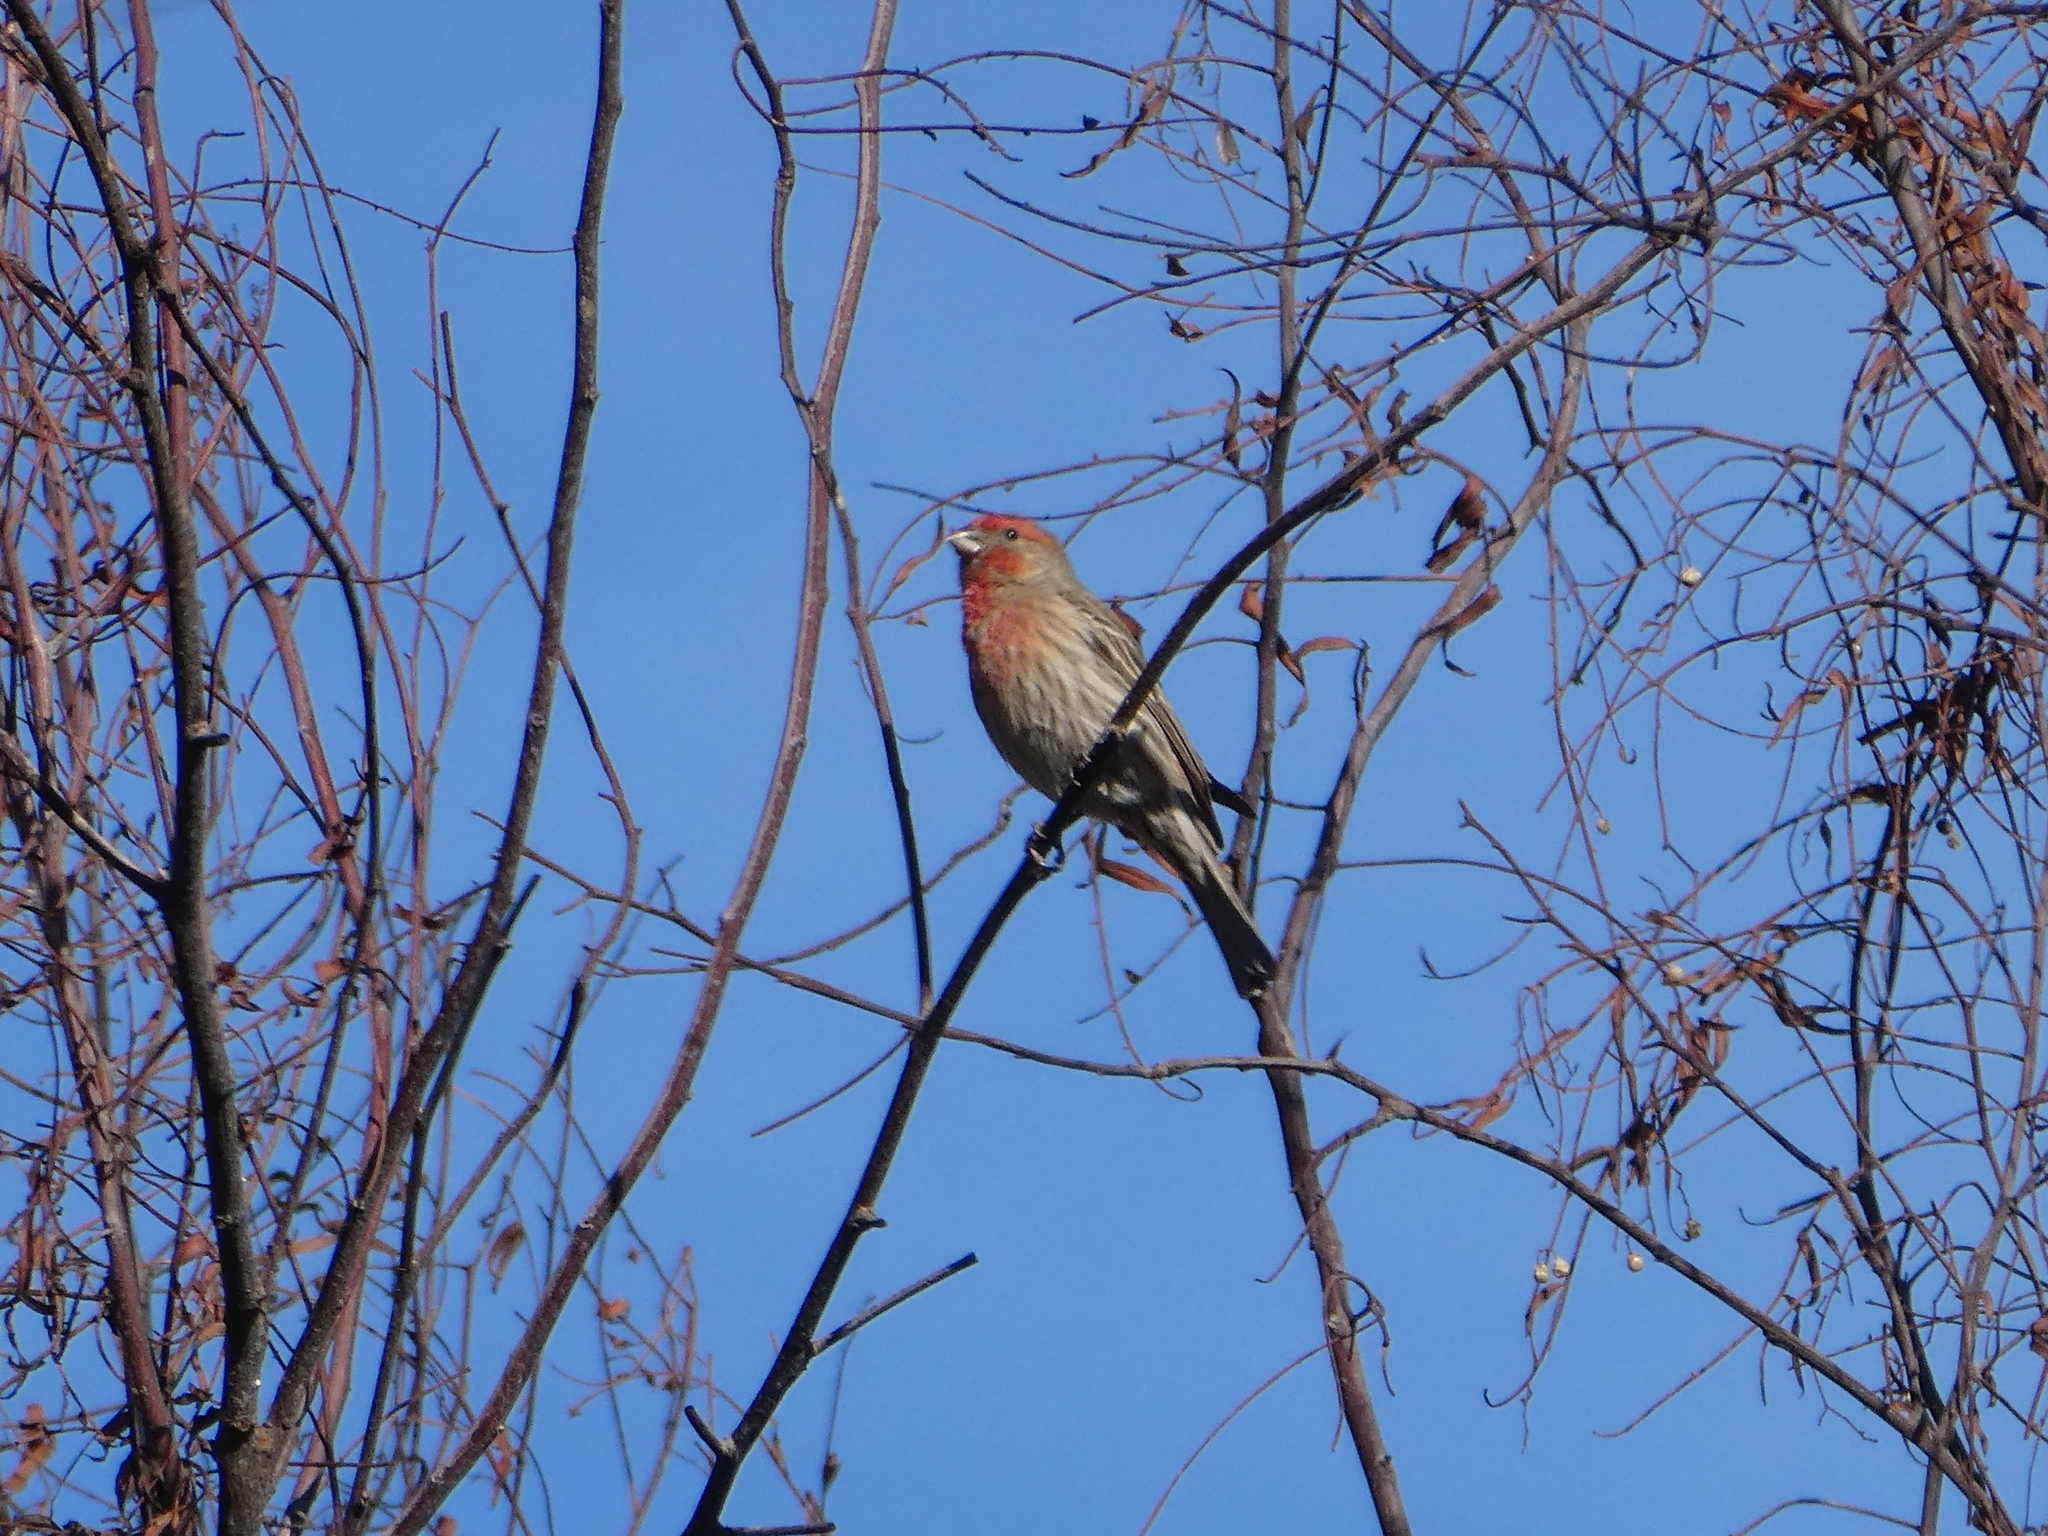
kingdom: Animalia
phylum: Chordata
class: Aves
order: Passeriformes
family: Fringillidae
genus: Haemorhous
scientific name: Haemorhous mexicanus
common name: House finch
